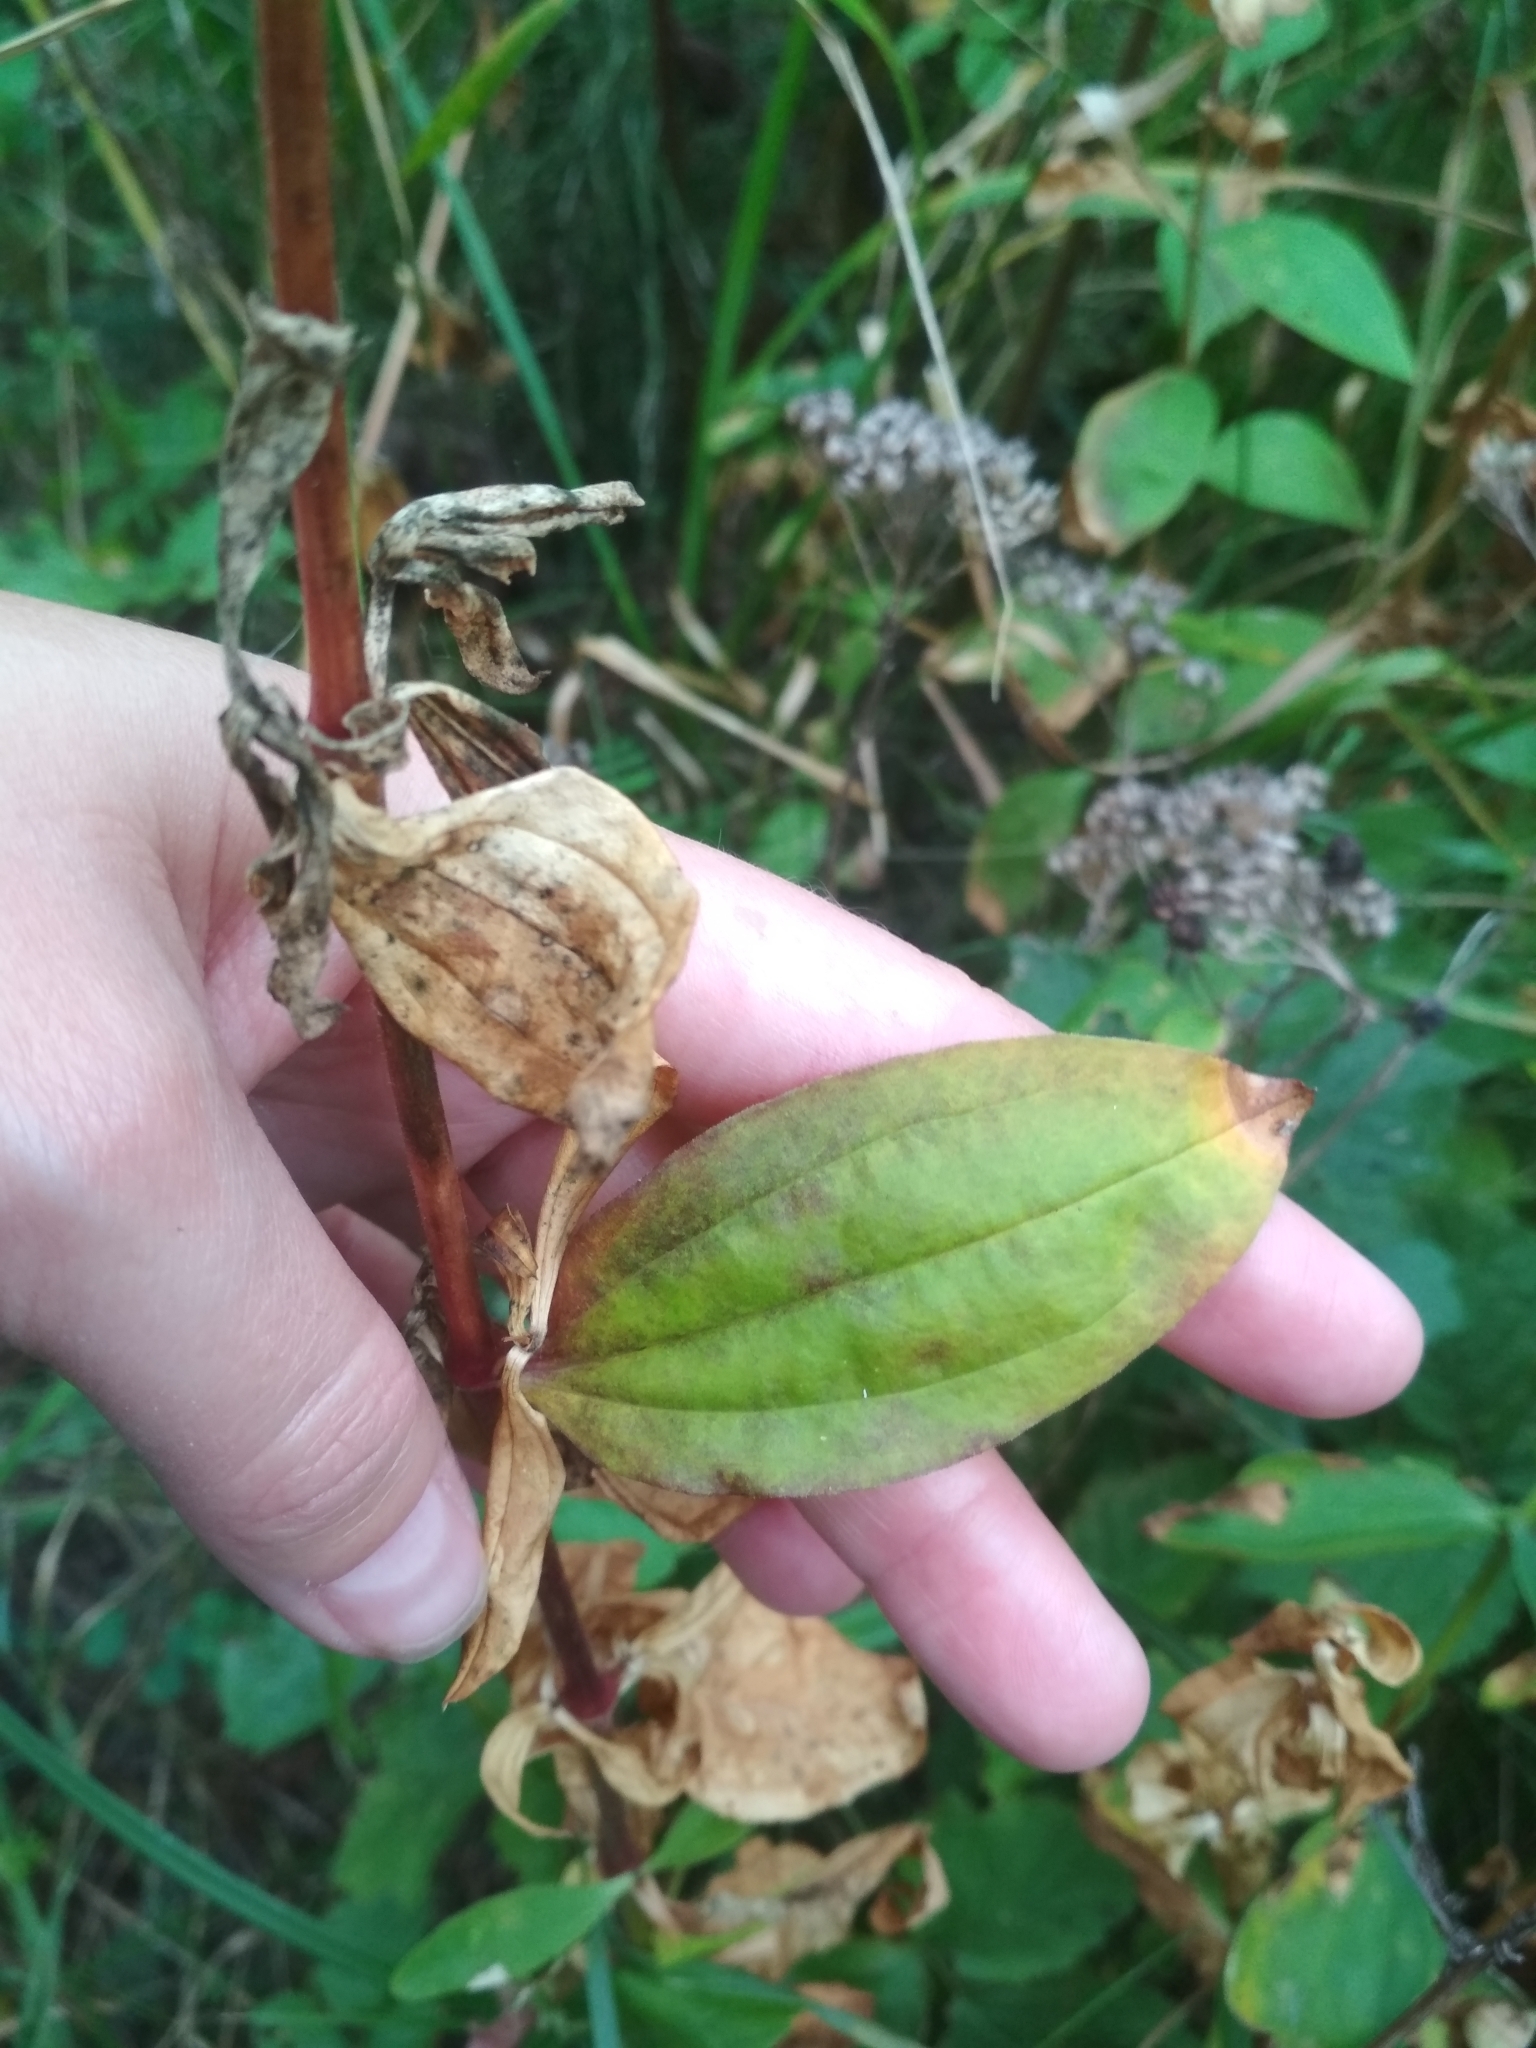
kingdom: Plantae
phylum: Tracheophyta
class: Magnoliopsida
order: Caryophyllales
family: Caryophyllaceae
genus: Saponaria
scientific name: Saponaria officinalis
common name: Soapwort
